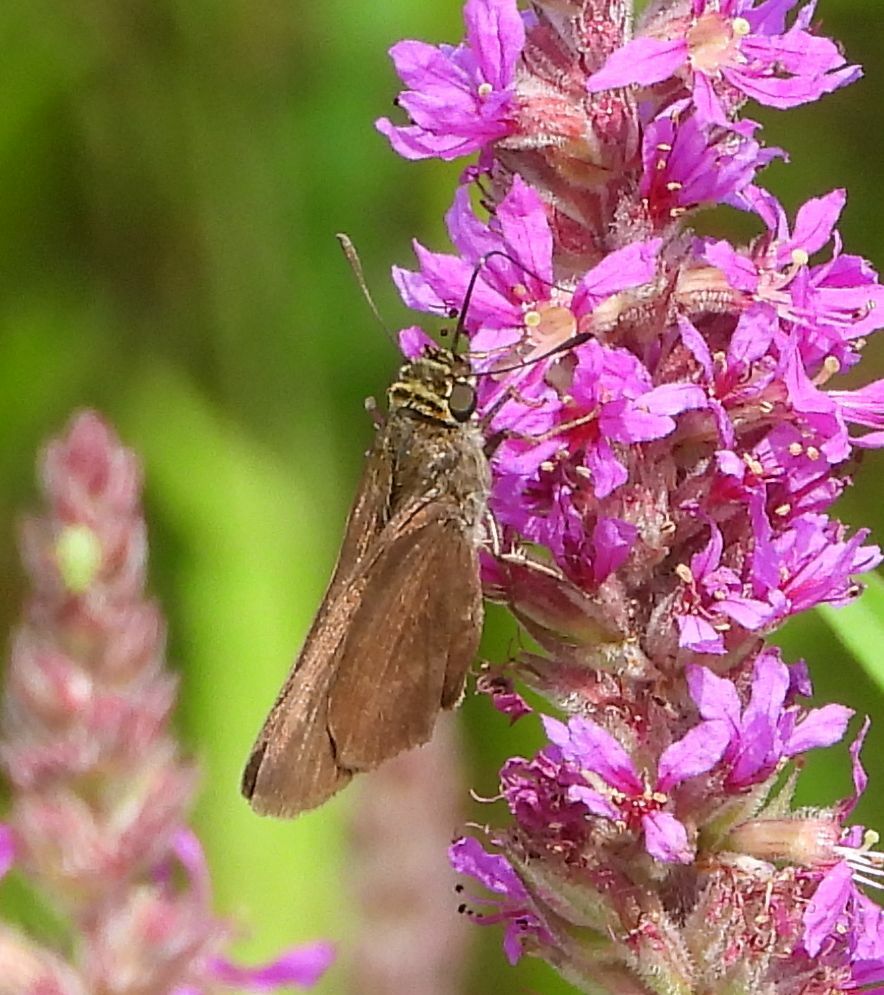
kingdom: Animalia
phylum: Arthropoda
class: Insecta
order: Lepidoptera
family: Hesperiidae
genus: Euphyes
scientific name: Euphyes vestris
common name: Dun skipper
